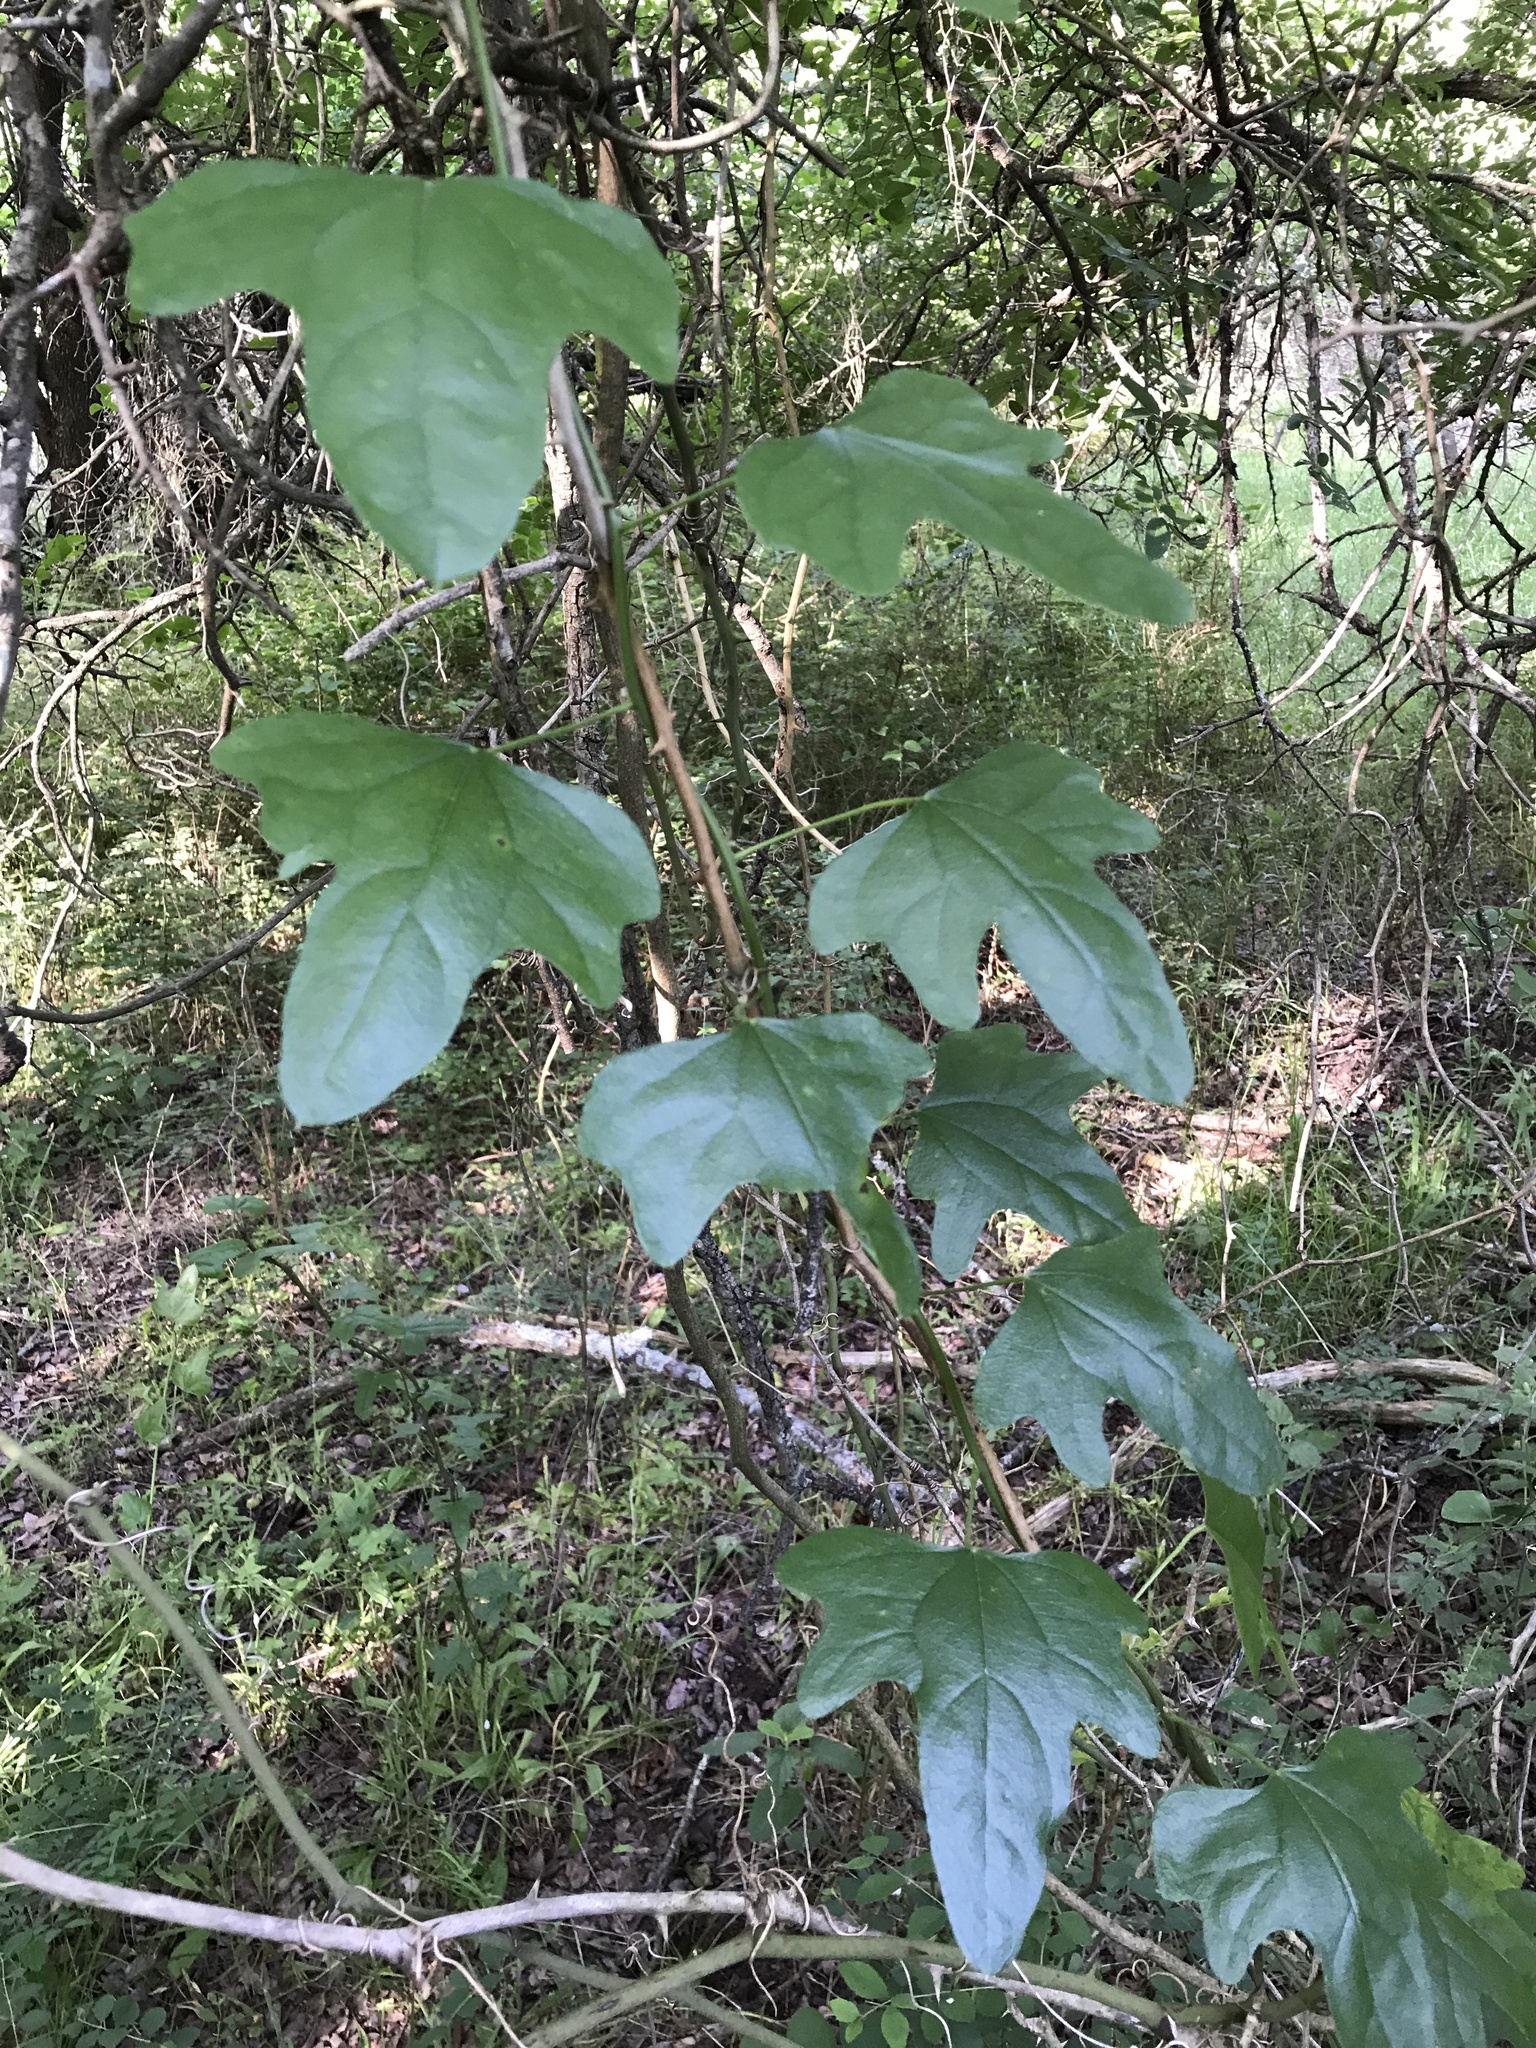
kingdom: Plantae
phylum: Tracheophyta
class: Magnoliopsida
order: Ranunculales
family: Menispermaceae
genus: Cocculus
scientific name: Cocculus carolinus
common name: Carolina moonseed
